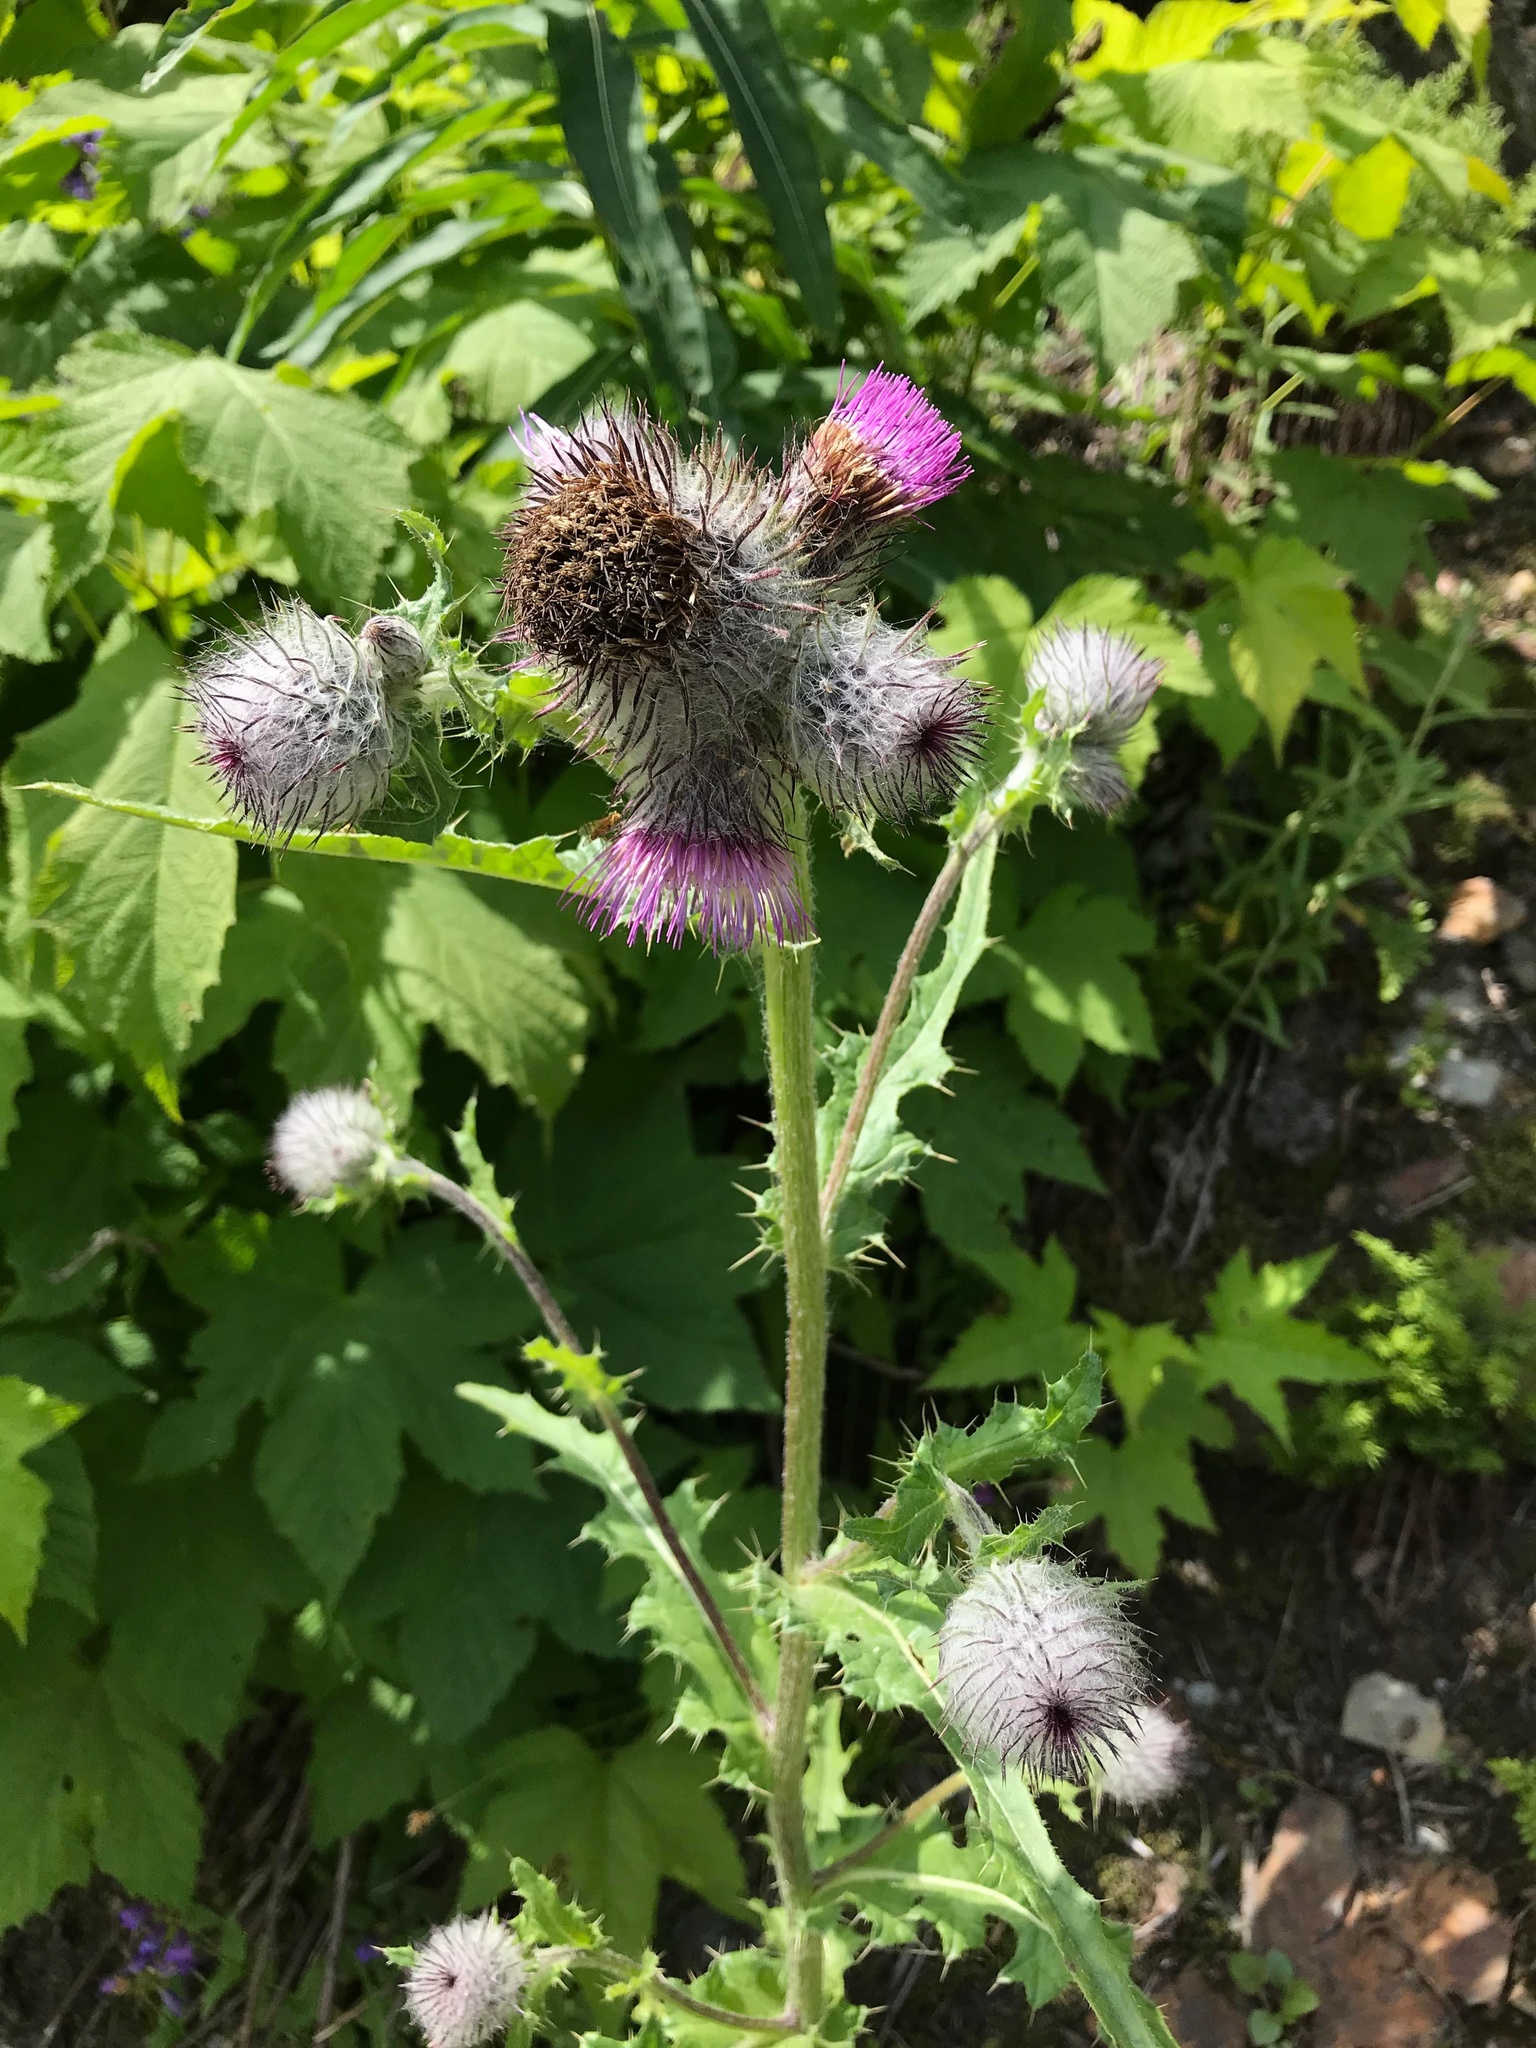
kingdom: Plantae
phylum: Tracheophyta
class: Magnoliopsida
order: Asterales
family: Asteraceae
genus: Cirsium
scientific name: Cirsium edule
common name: Indian thistle
